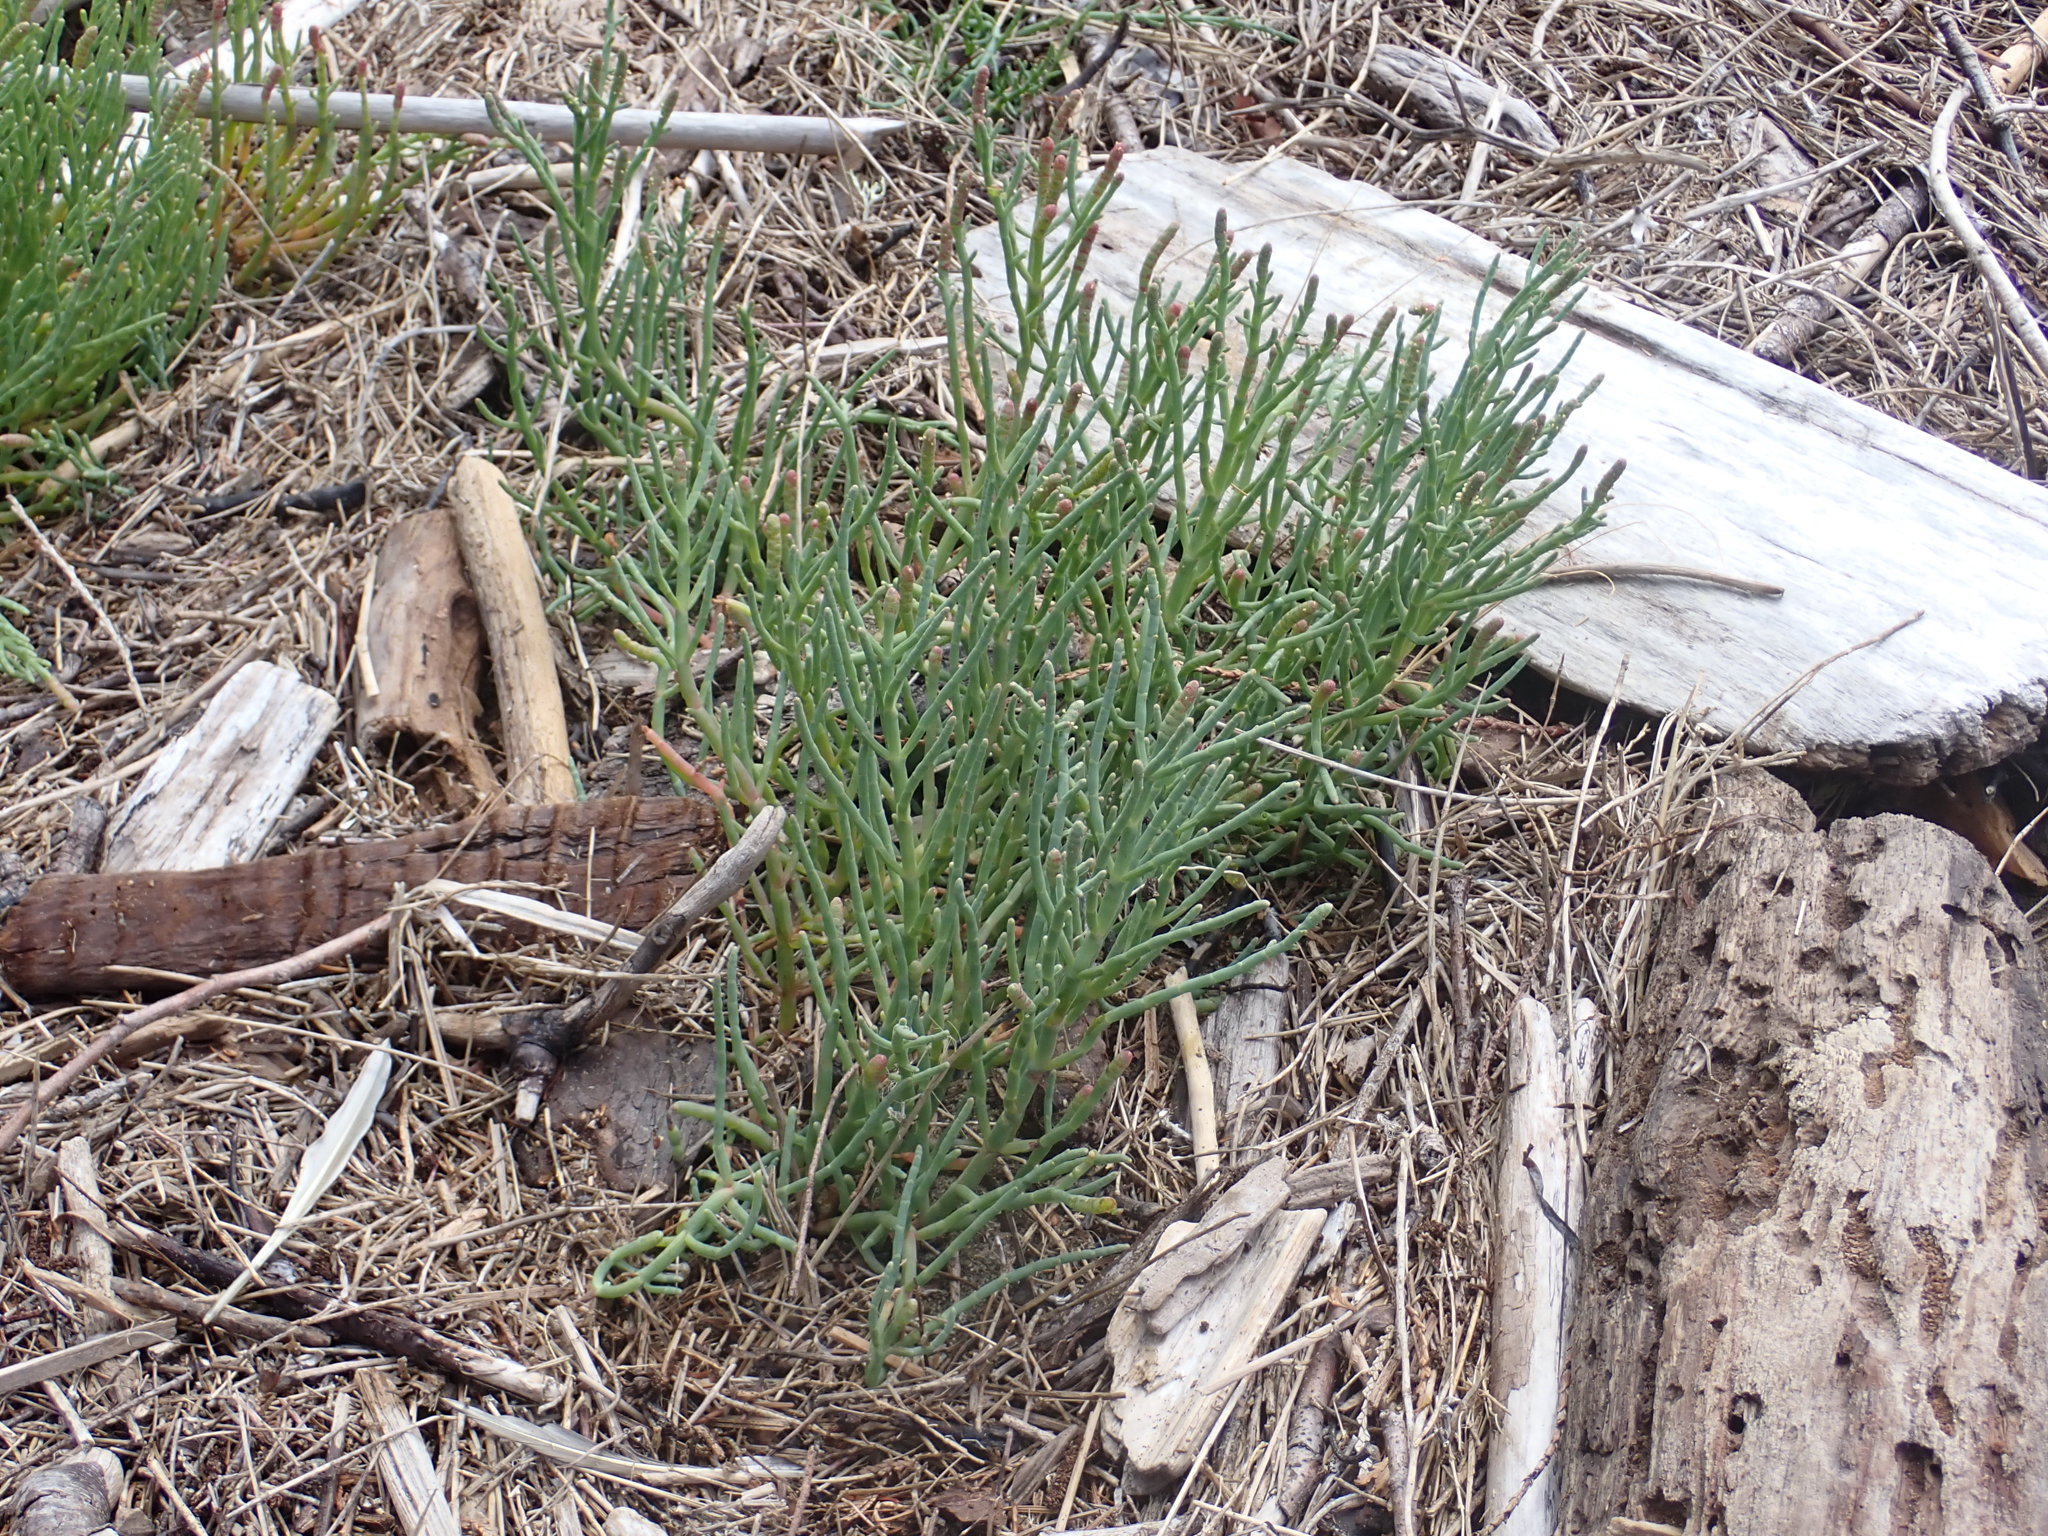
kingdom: Plantae
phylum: Tracheophyta
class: Magnoliopsida
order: Caryophyllales
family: Amaranthaceae
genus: Salicornia
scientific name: Salicornia pacifica
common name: Pacific glasswort
